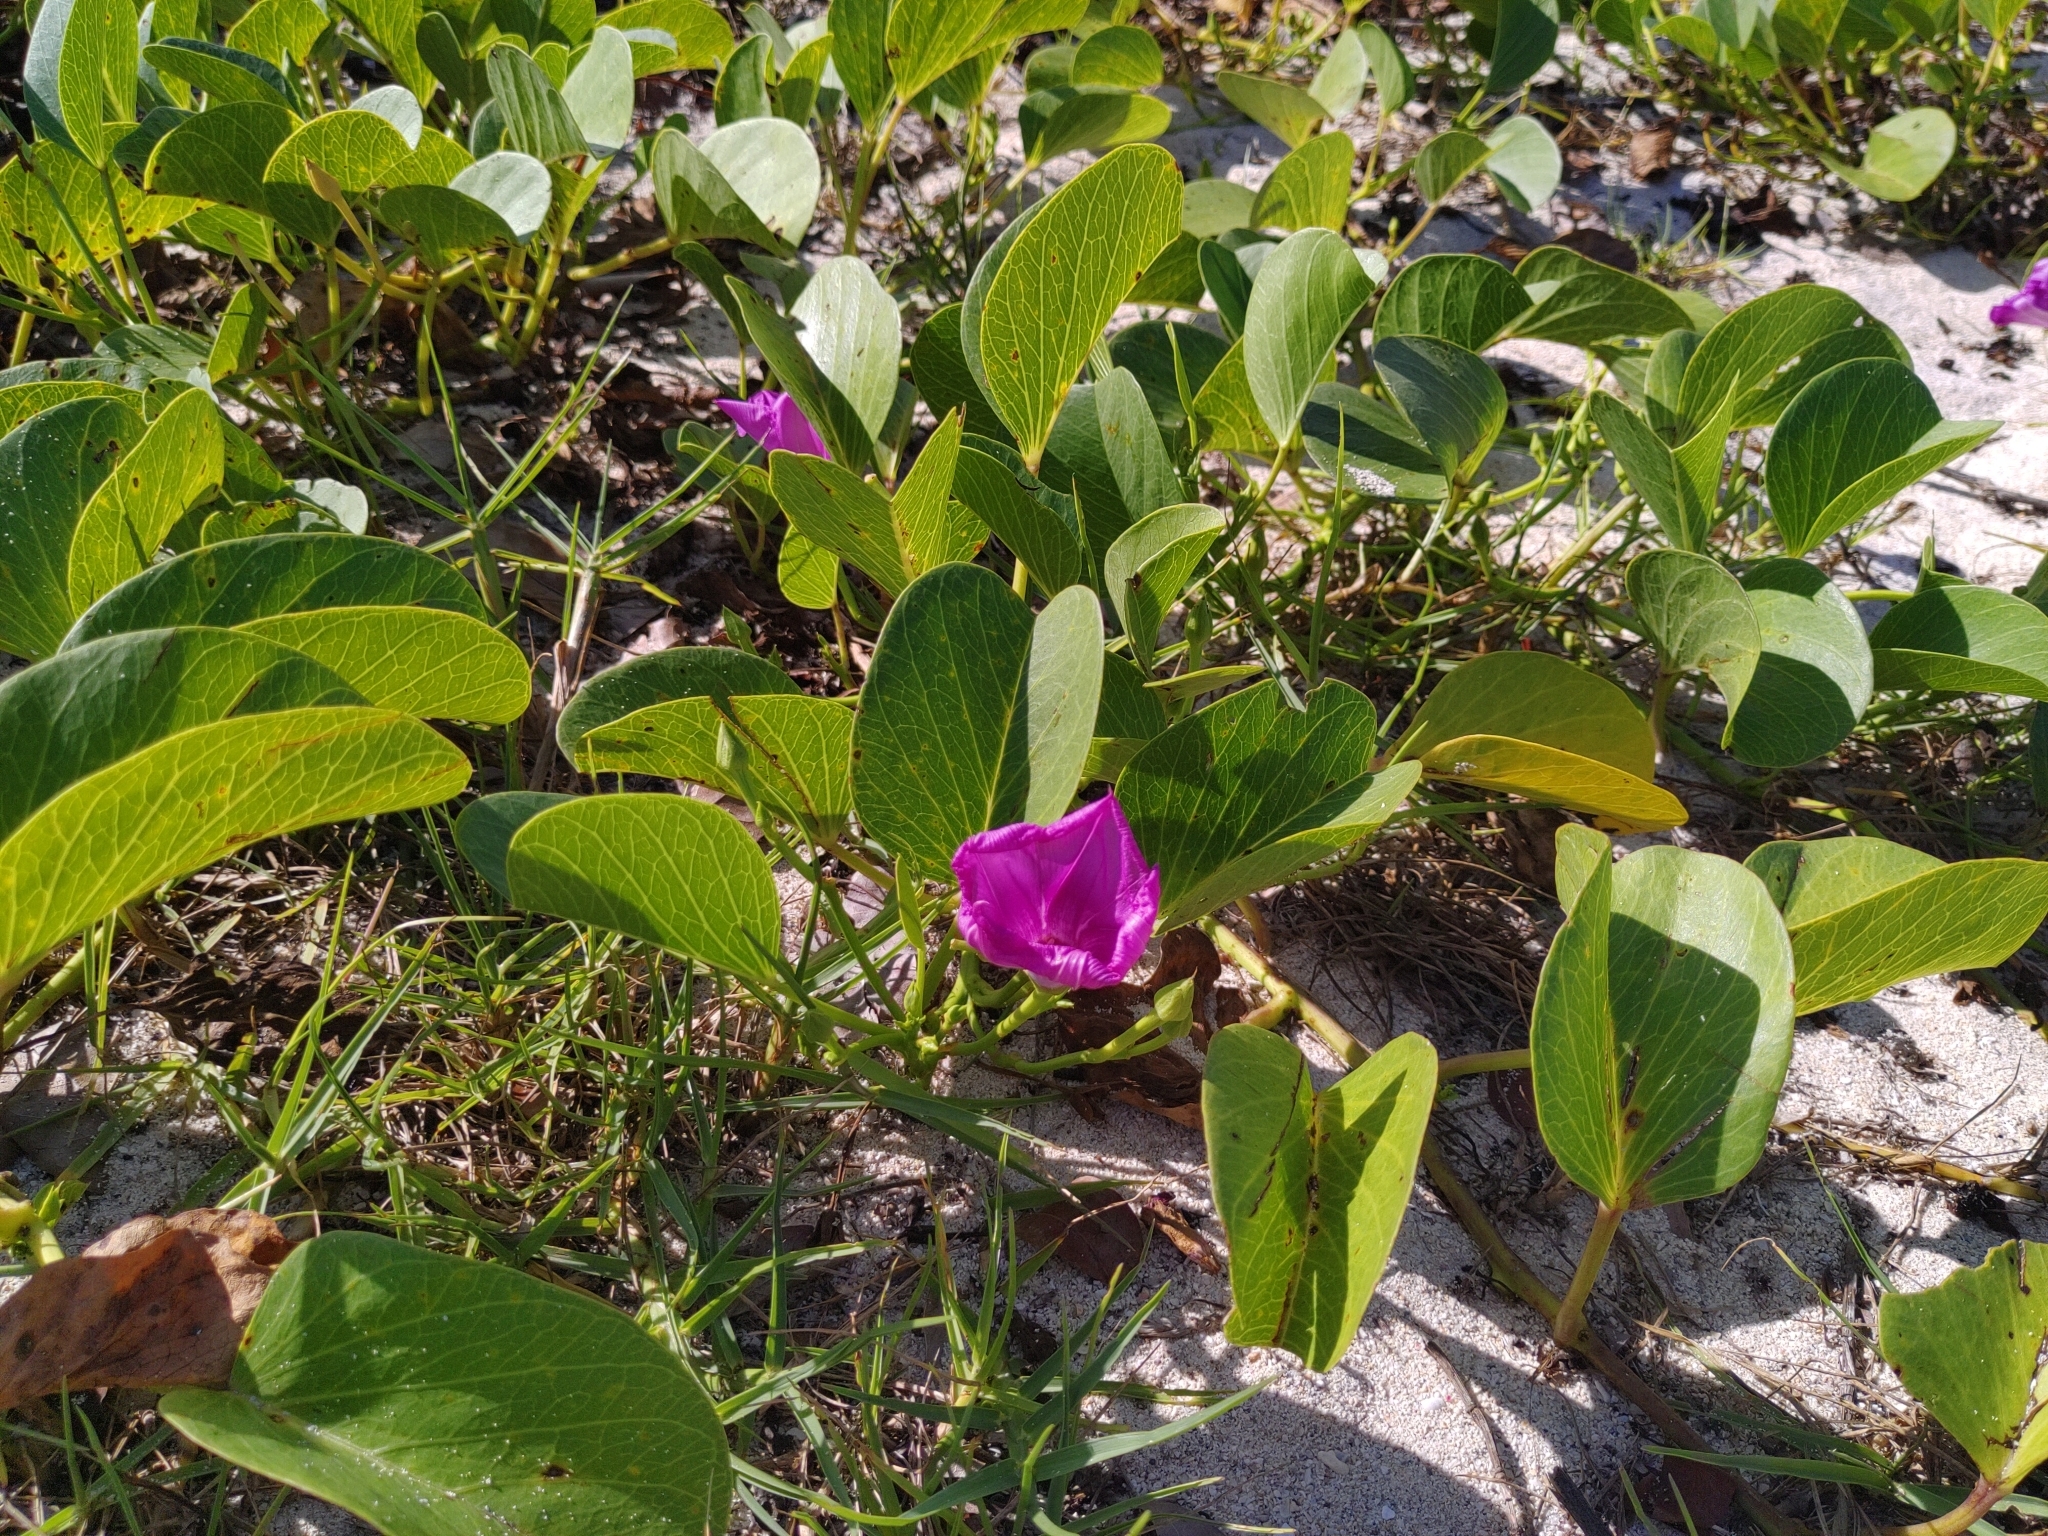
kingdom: Plantae
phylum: Tracheophyta
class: Magnoliopsida
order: Solanales
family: Convolvulaceae
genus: Ipomoea
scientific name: Ipomoea pes-caprae
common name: Beach morning glory
